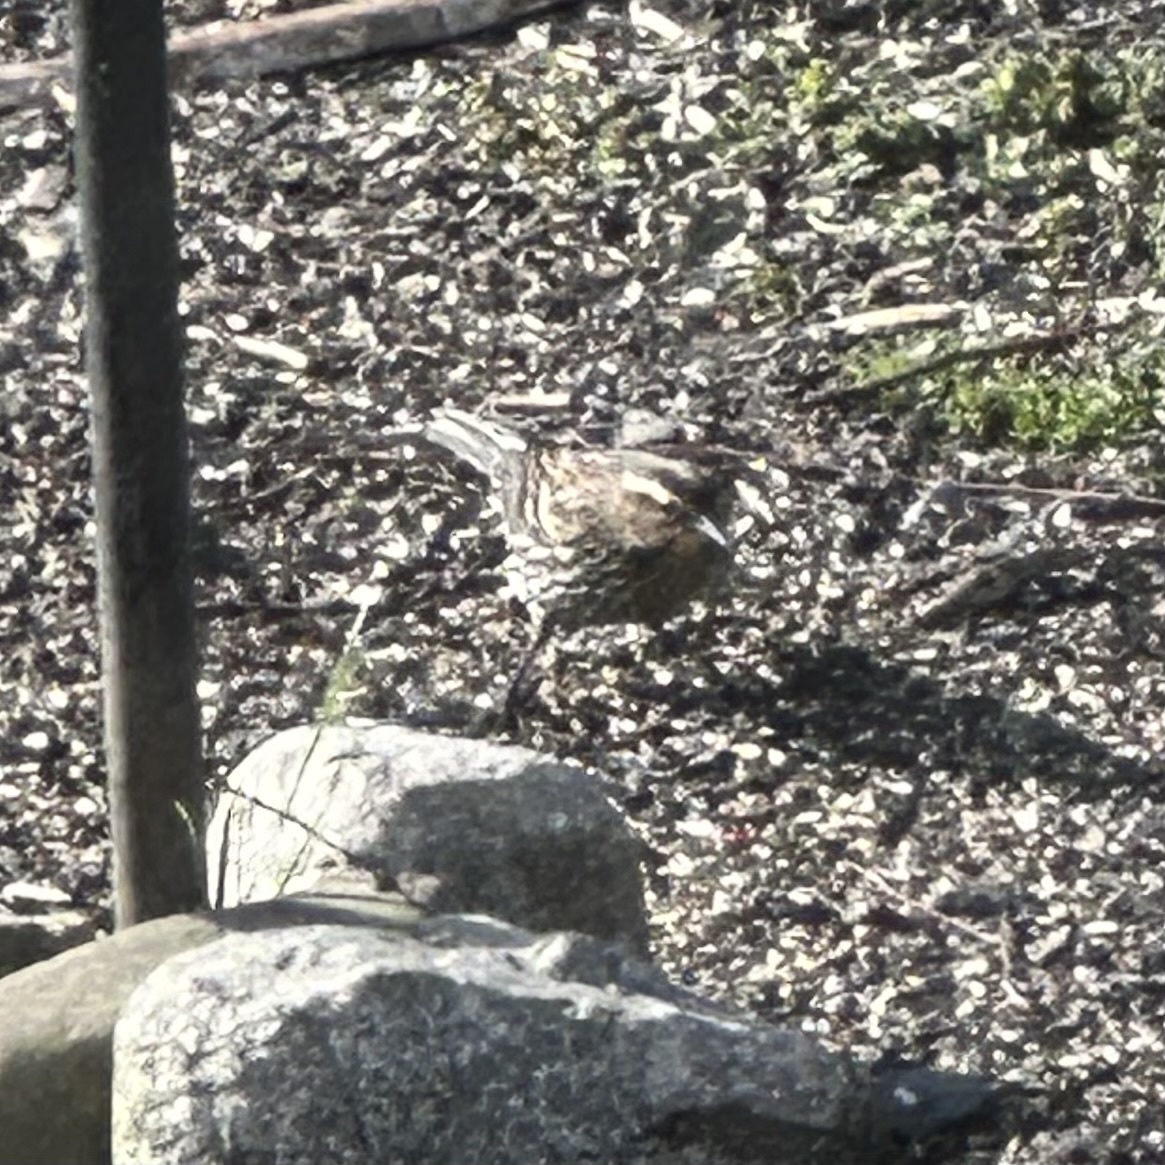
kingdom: Animalia
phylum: Chordata
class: Aves
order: Passeriformes
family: Icteridae
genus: Agelaius
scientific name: Agelaius phoeniceus
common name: Red-winged blackbird
